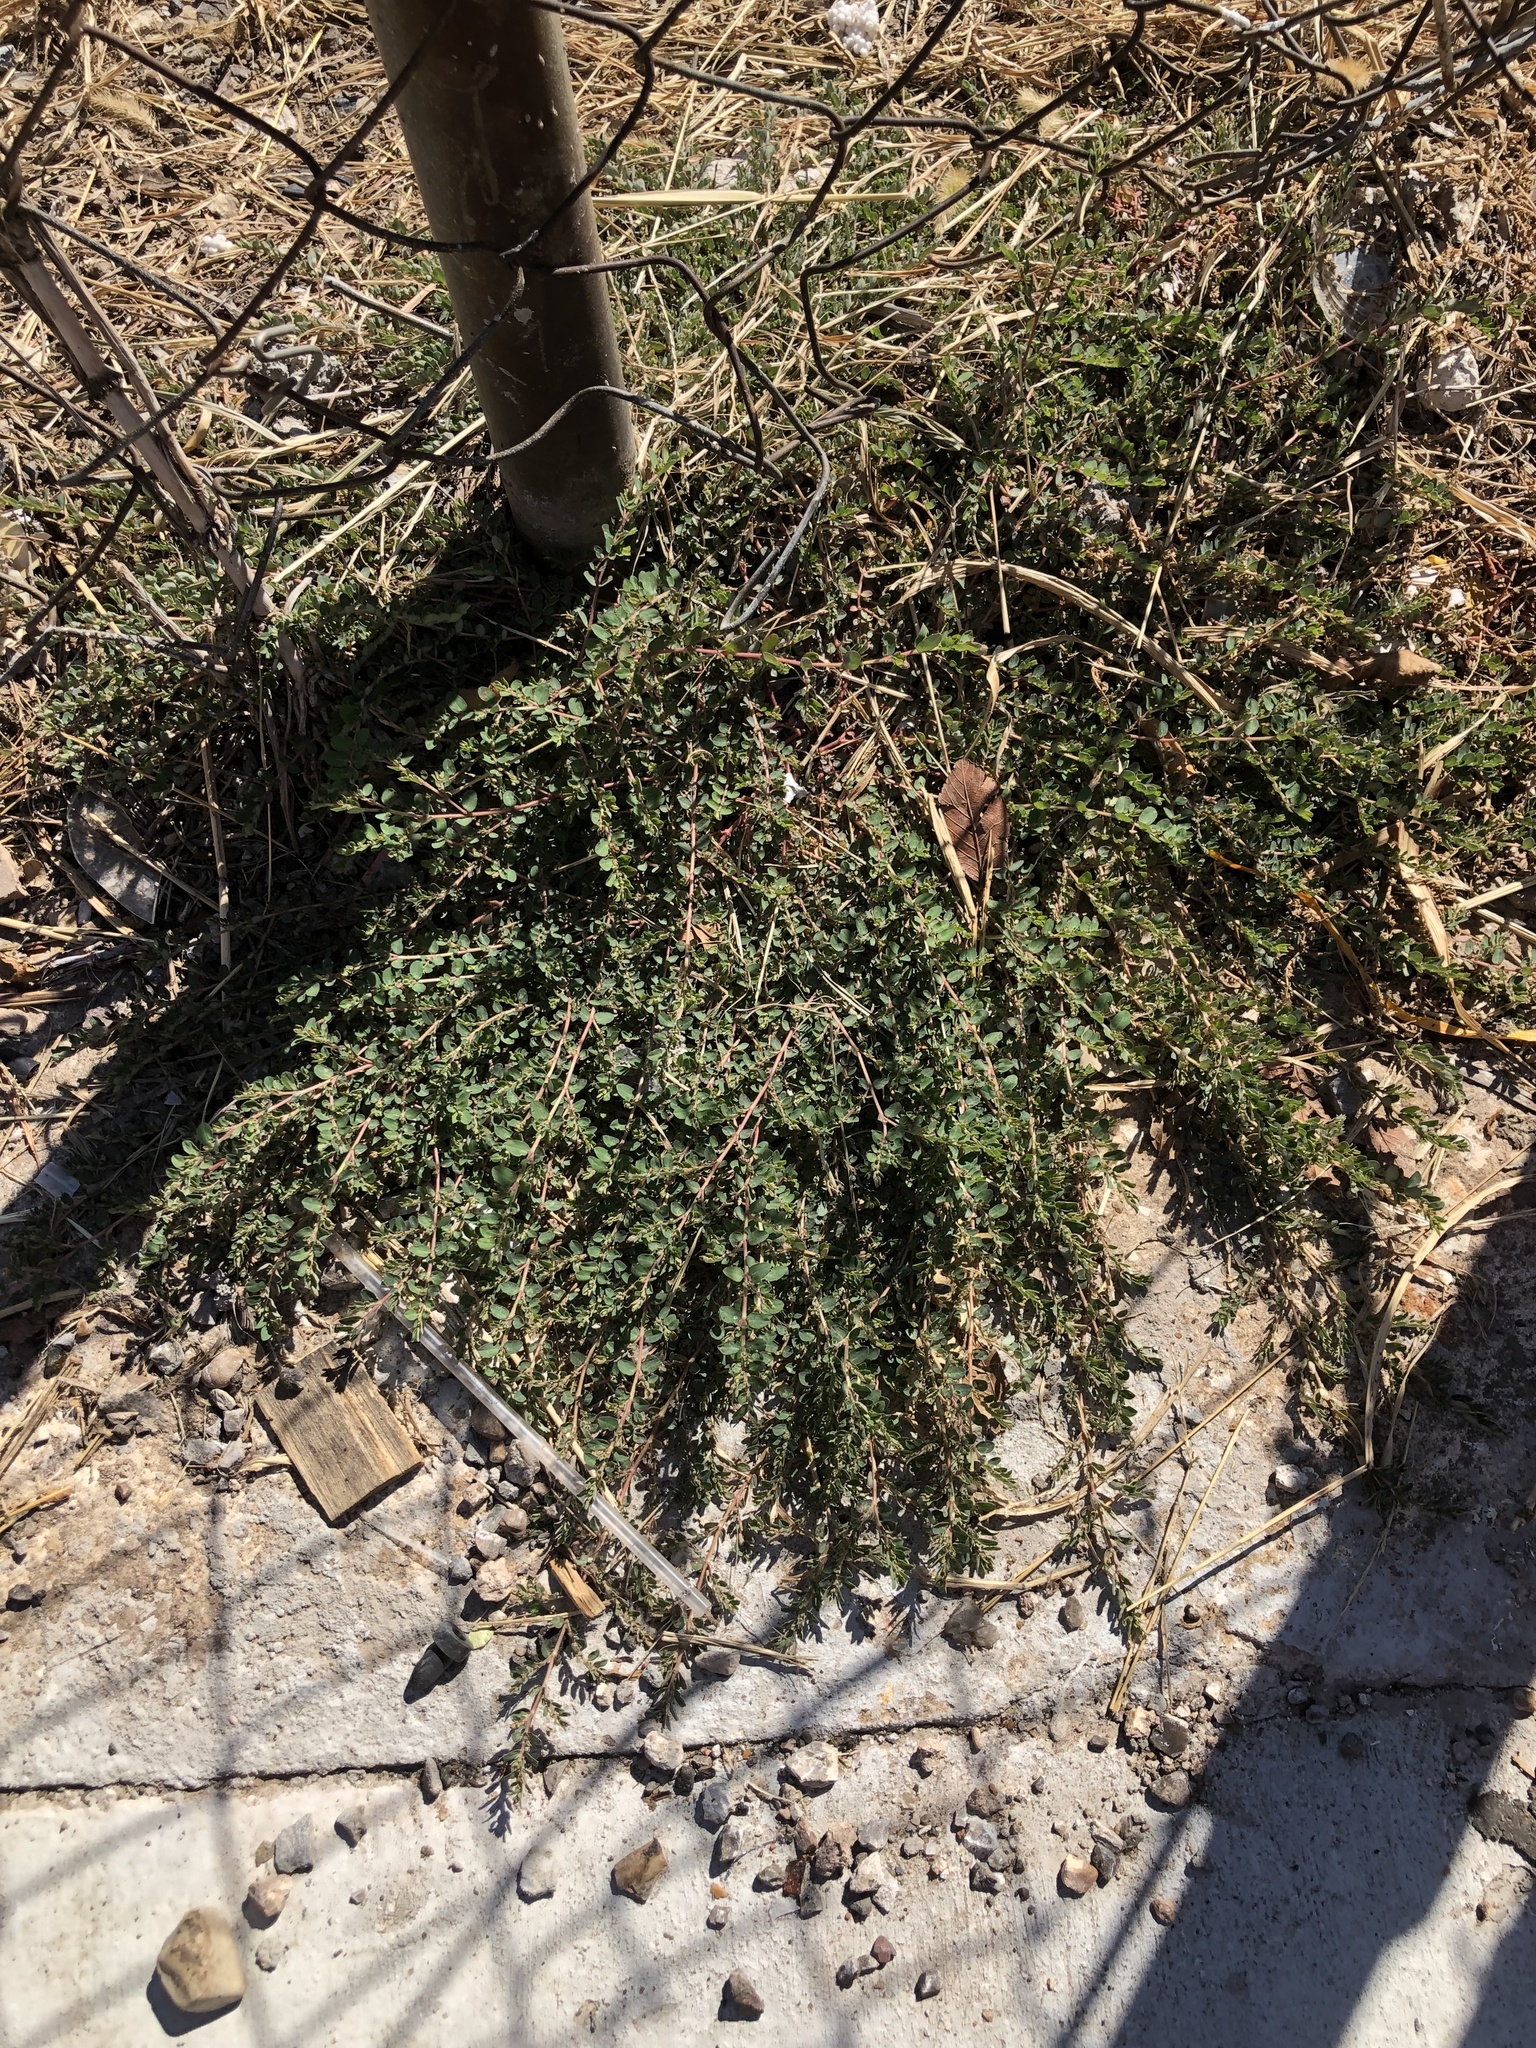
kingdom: Plantae
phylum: Tracheophyta
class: Magnoliopsida
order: Malpighiales
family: Euphorbiaceae
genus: Euphorbia
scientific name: Euphorbia prostrata
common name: Prostrate sandmat
